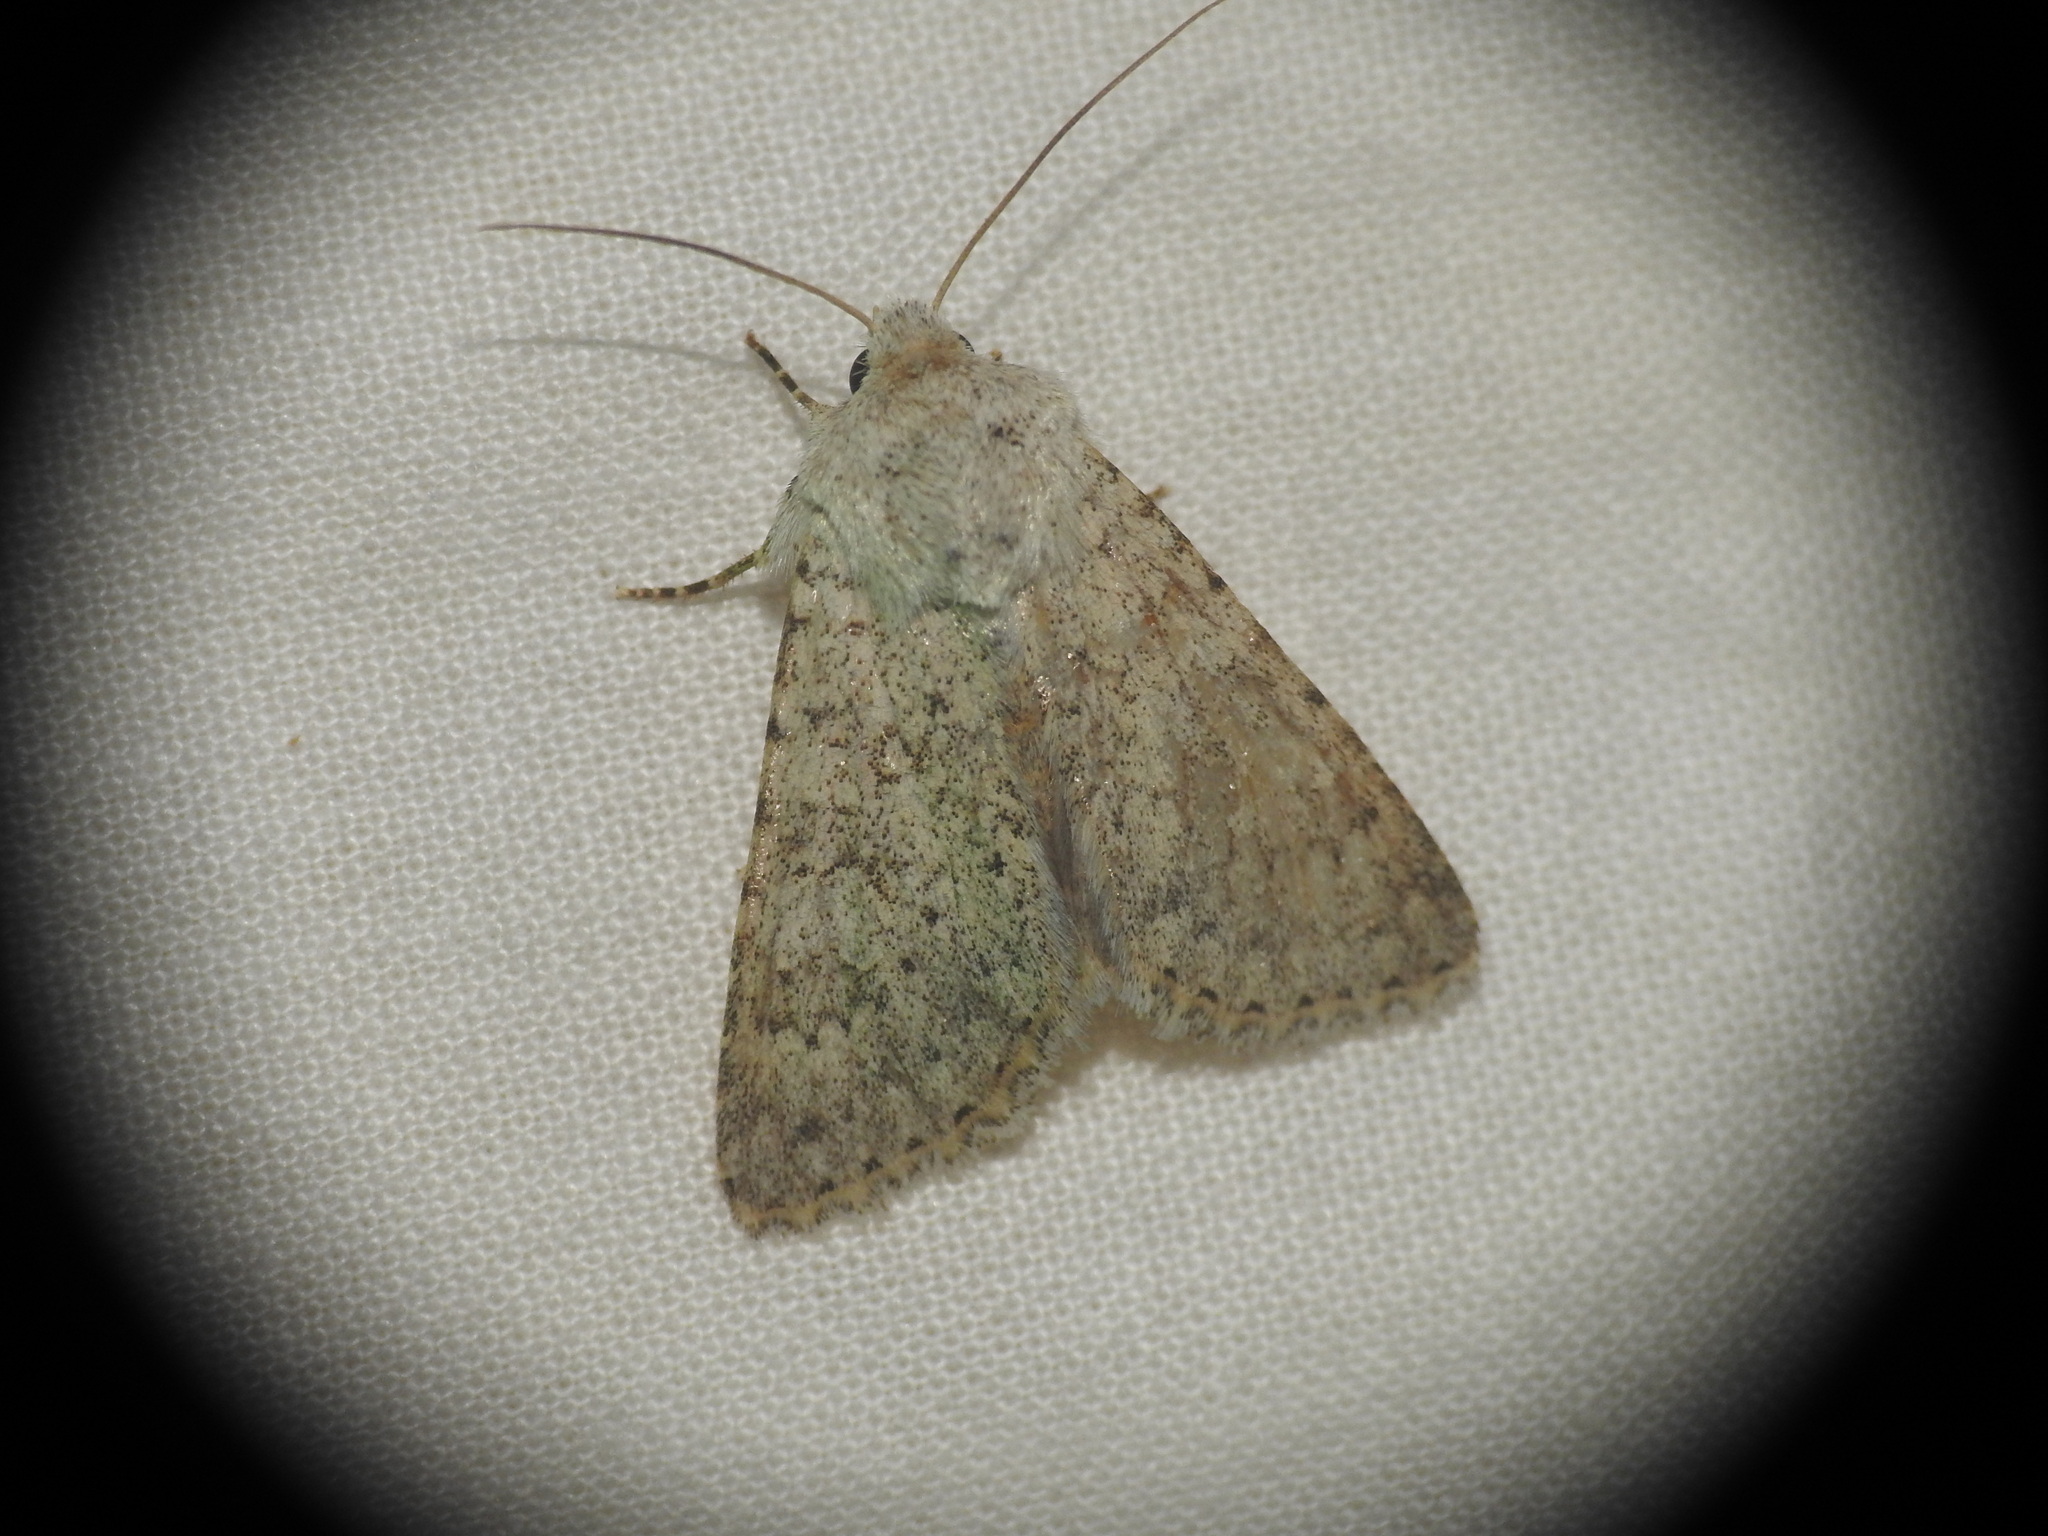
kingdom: Animalia
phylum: Arthropoda
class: Insecta
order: Lepidoptera
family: Noctuidae
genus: Aporophyla
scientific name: Aporophyla canescens
